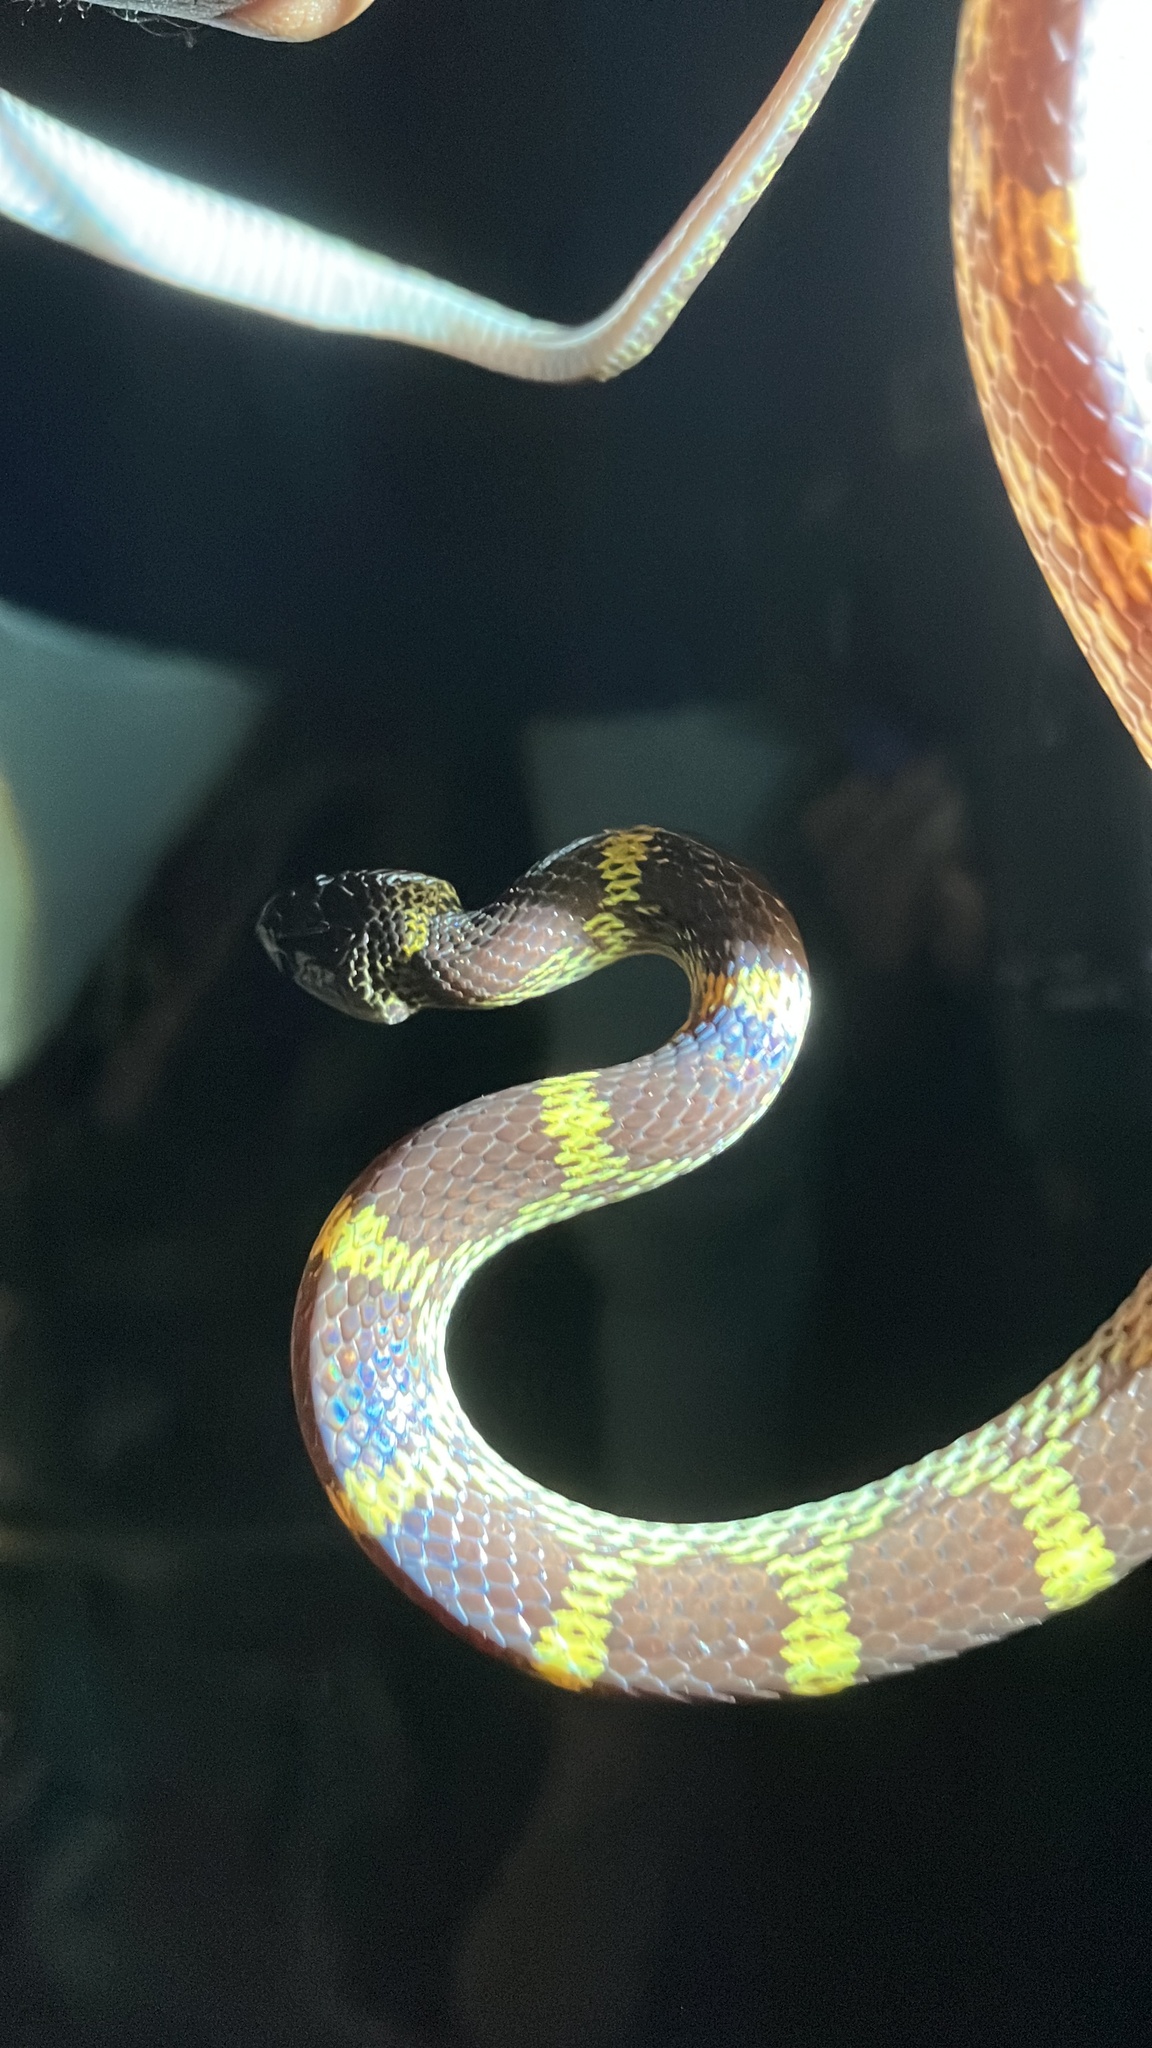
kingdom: Animalia
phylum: Chordata
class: Squamata
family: Colubridae
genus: Lycodon
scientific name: Lycodon travancoricus
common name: Travancore wolf snake
